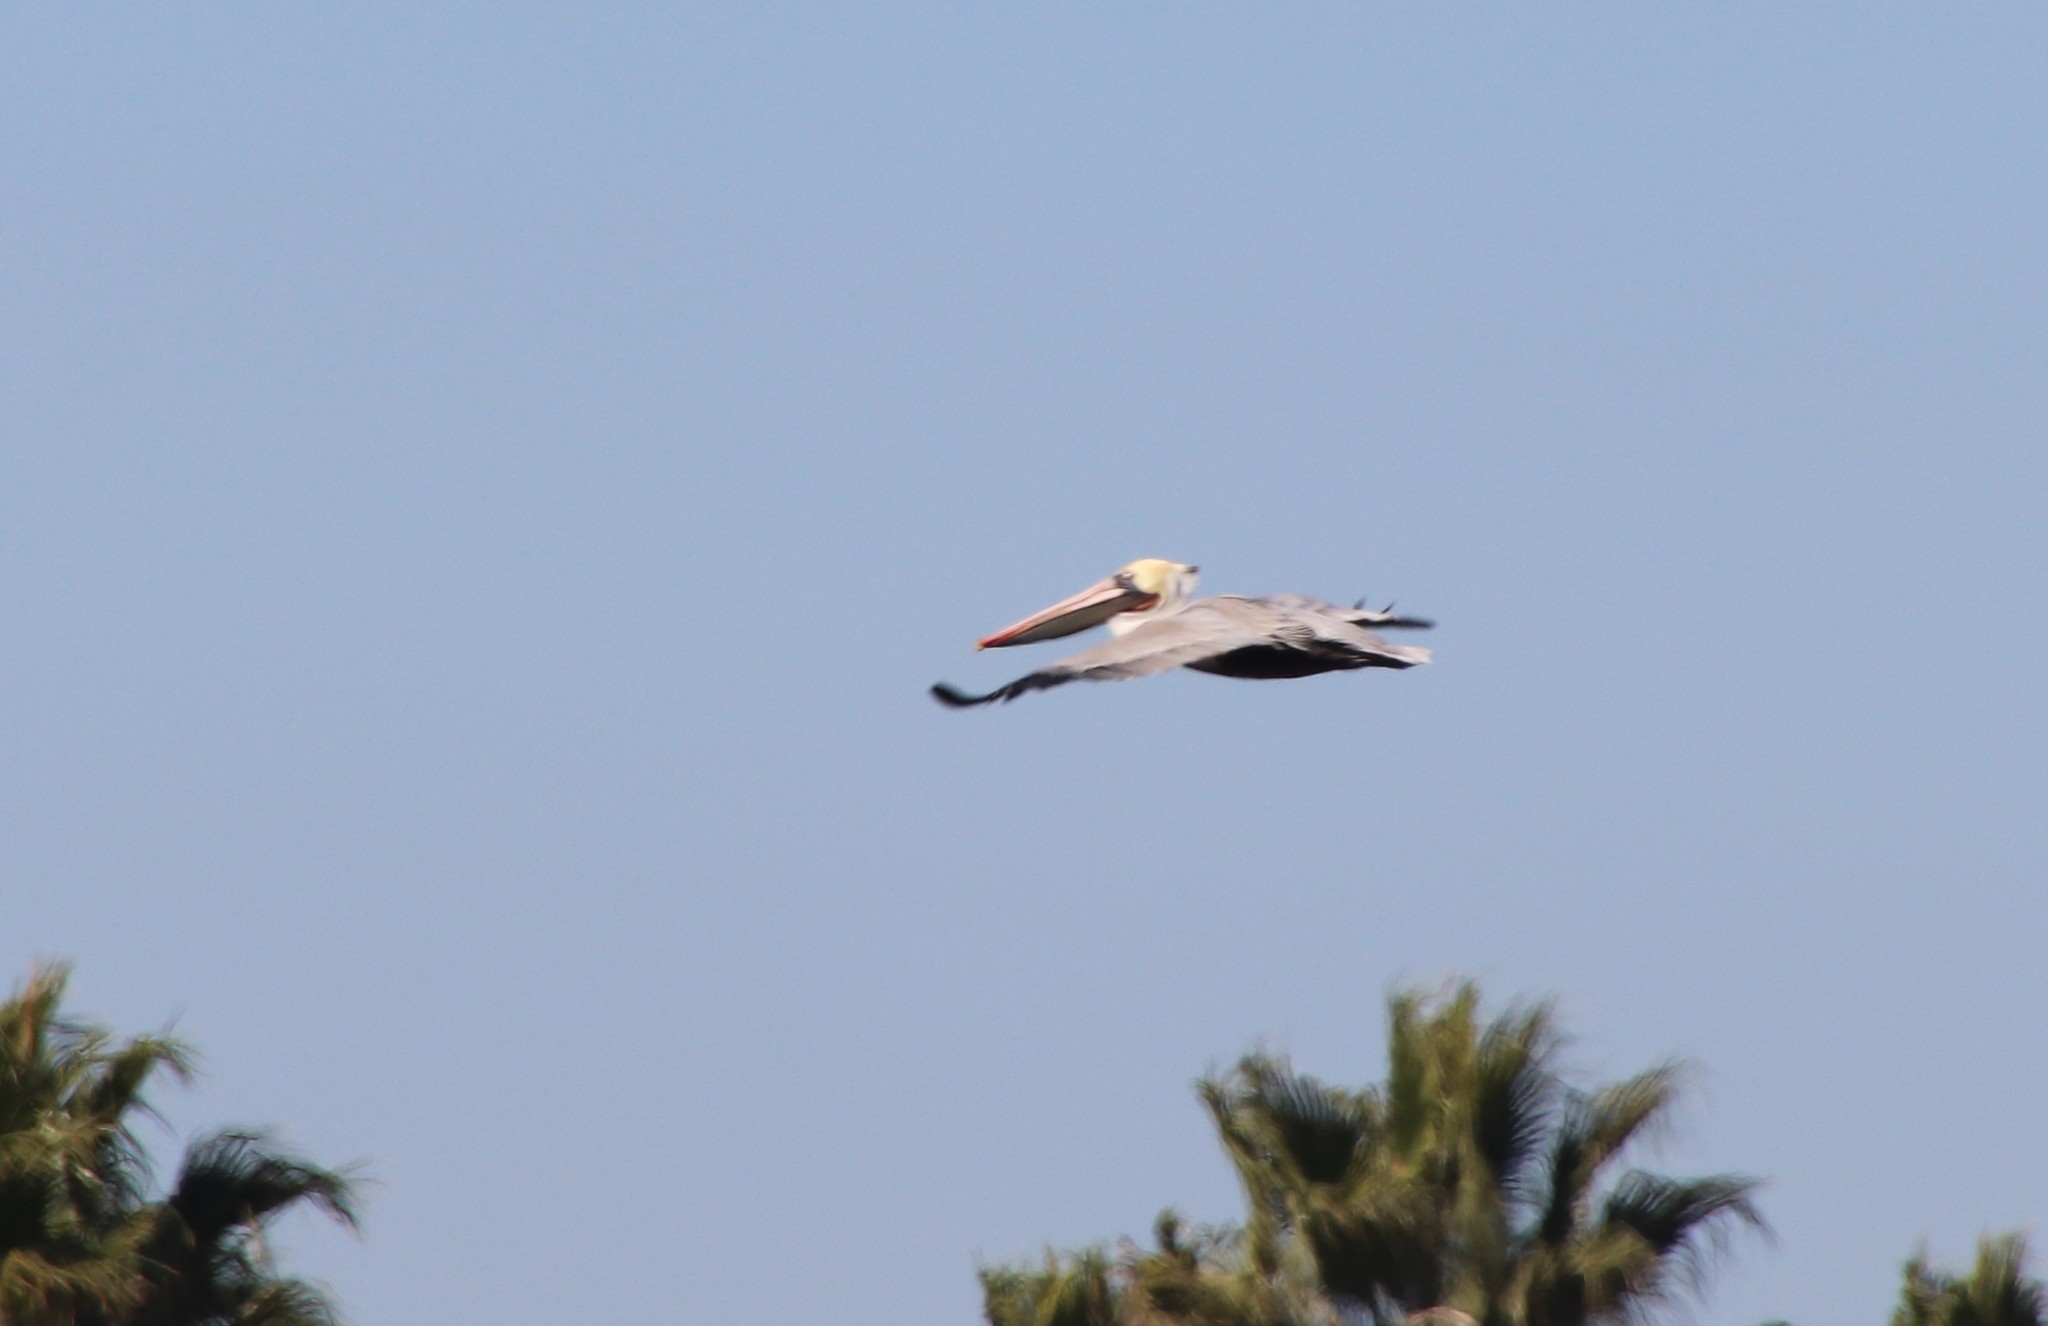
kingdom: Animalia
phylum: Chordata
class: Aves
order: Pelecaniformes
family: Pelecanidae
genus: Pelecanus
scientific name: Pelecanus occidentalis
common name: Brown pelican
